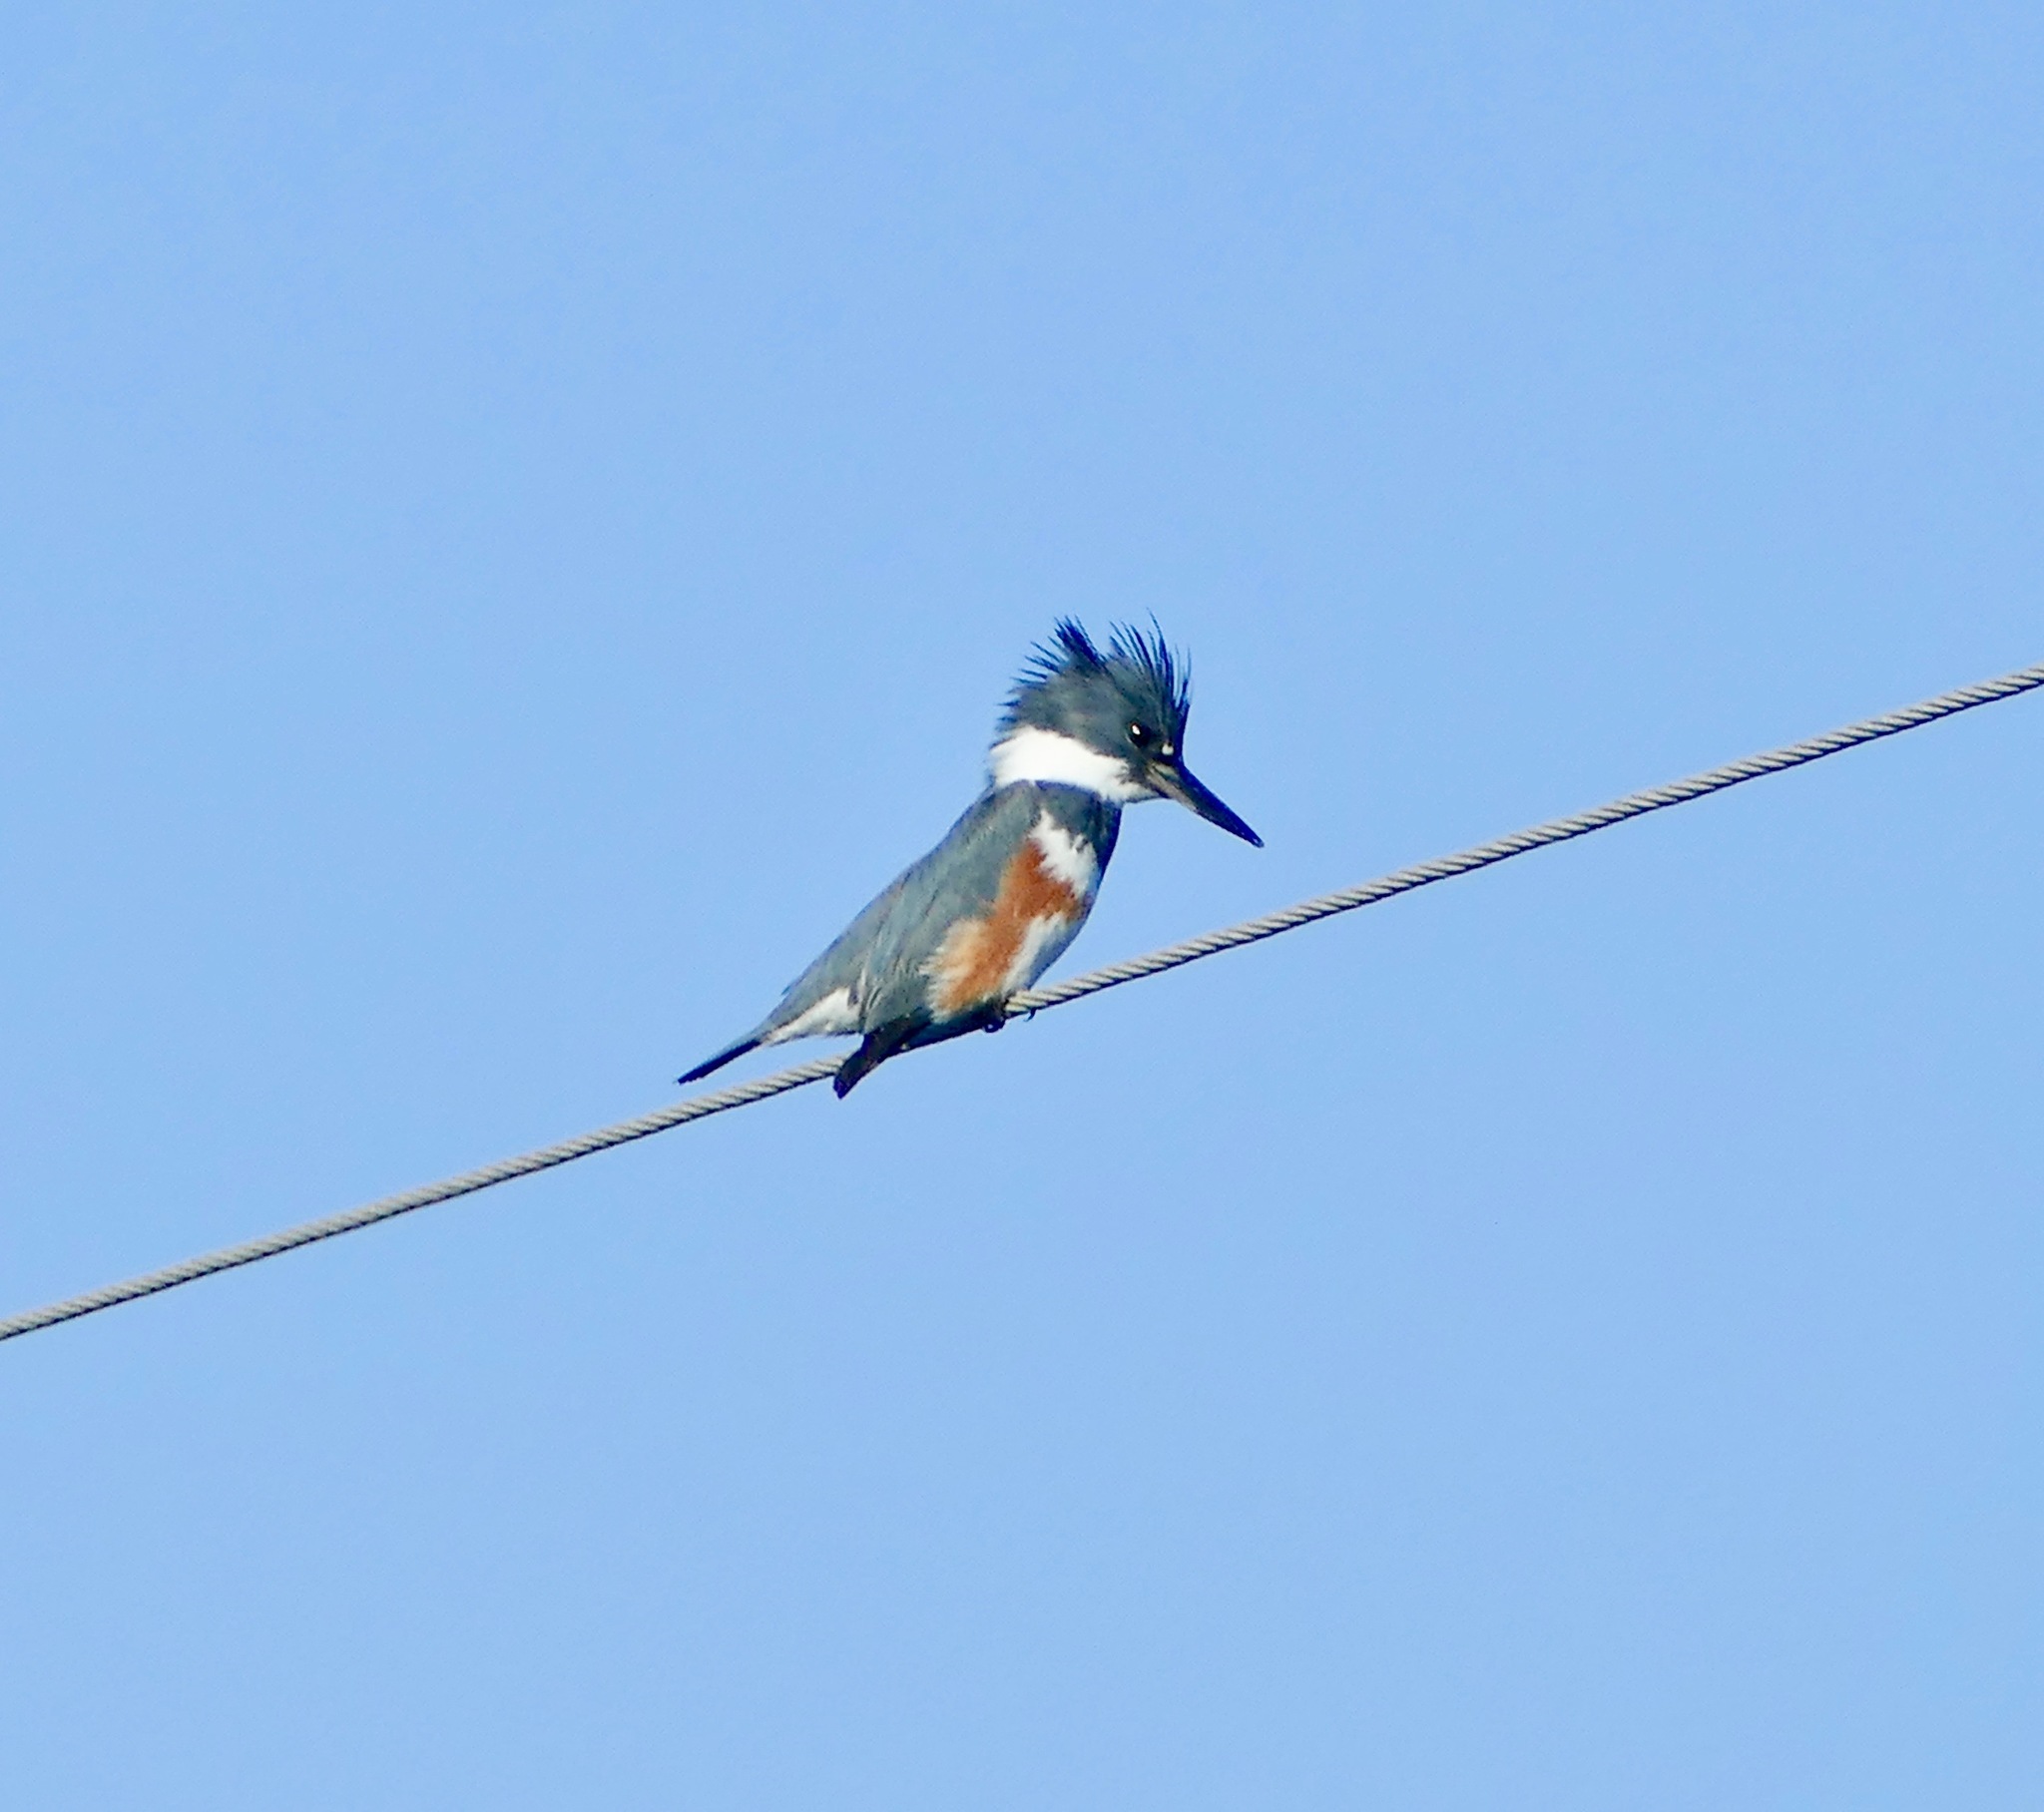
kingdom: Animalia
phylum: Chordata
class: Aves
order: Coraciiformes
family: Alcedinidae
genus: Megaceryle
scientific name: Megaceryle alcyon
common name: Belted kingfisher
